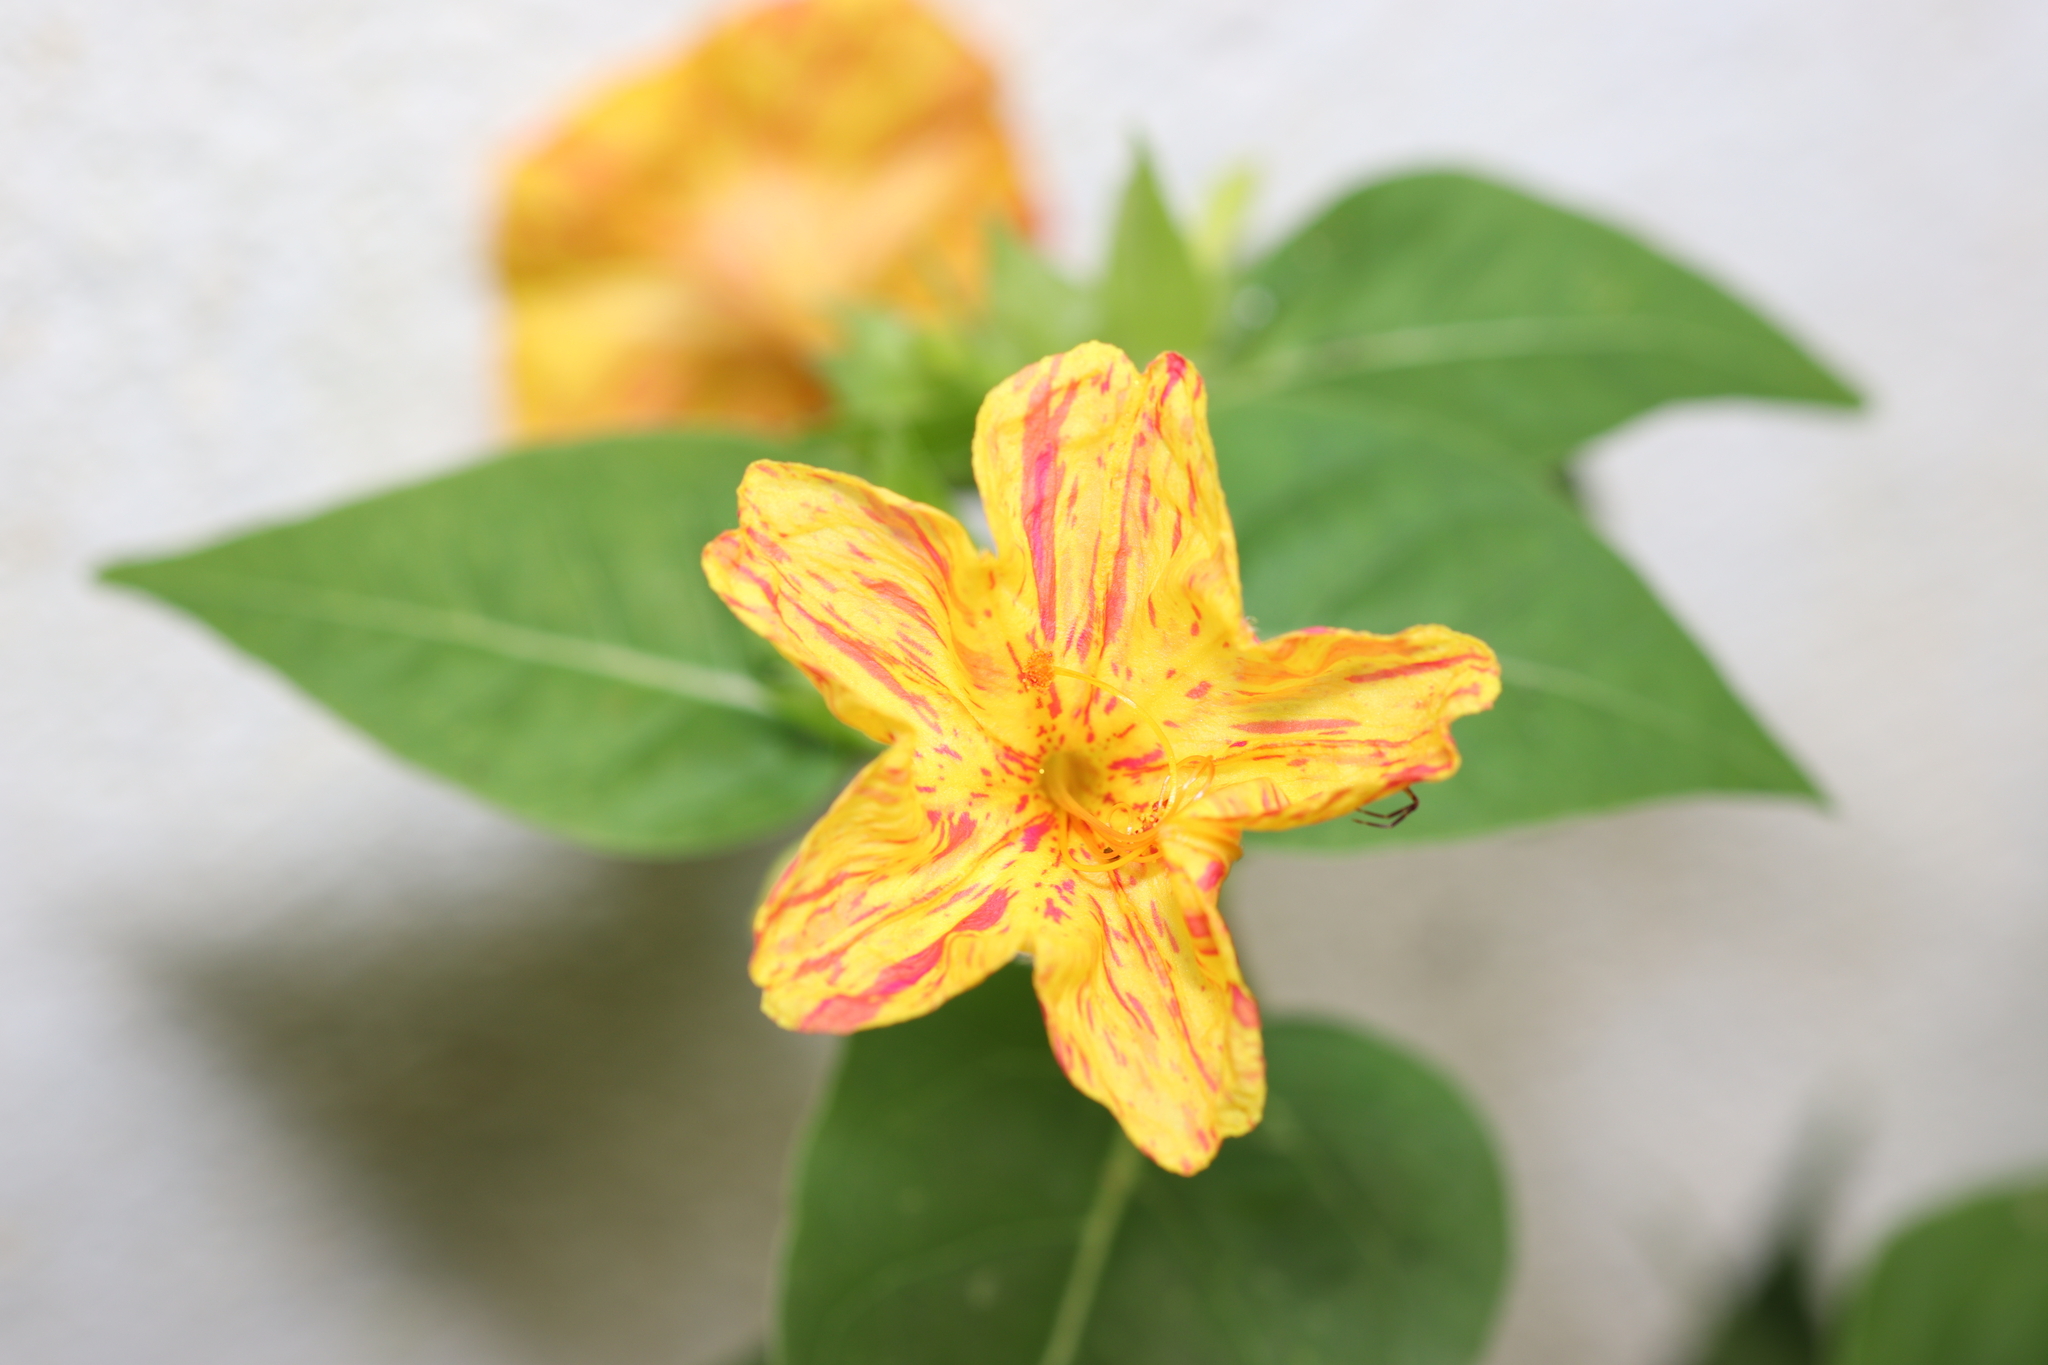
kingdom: Plantae
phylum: Tracheophyta
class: Magnoliopsida
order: Caryophyllales
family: Nyctaginaceae
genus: Mirabilis
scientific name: Mirabilis jalapa
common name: Marvel-of-peru
